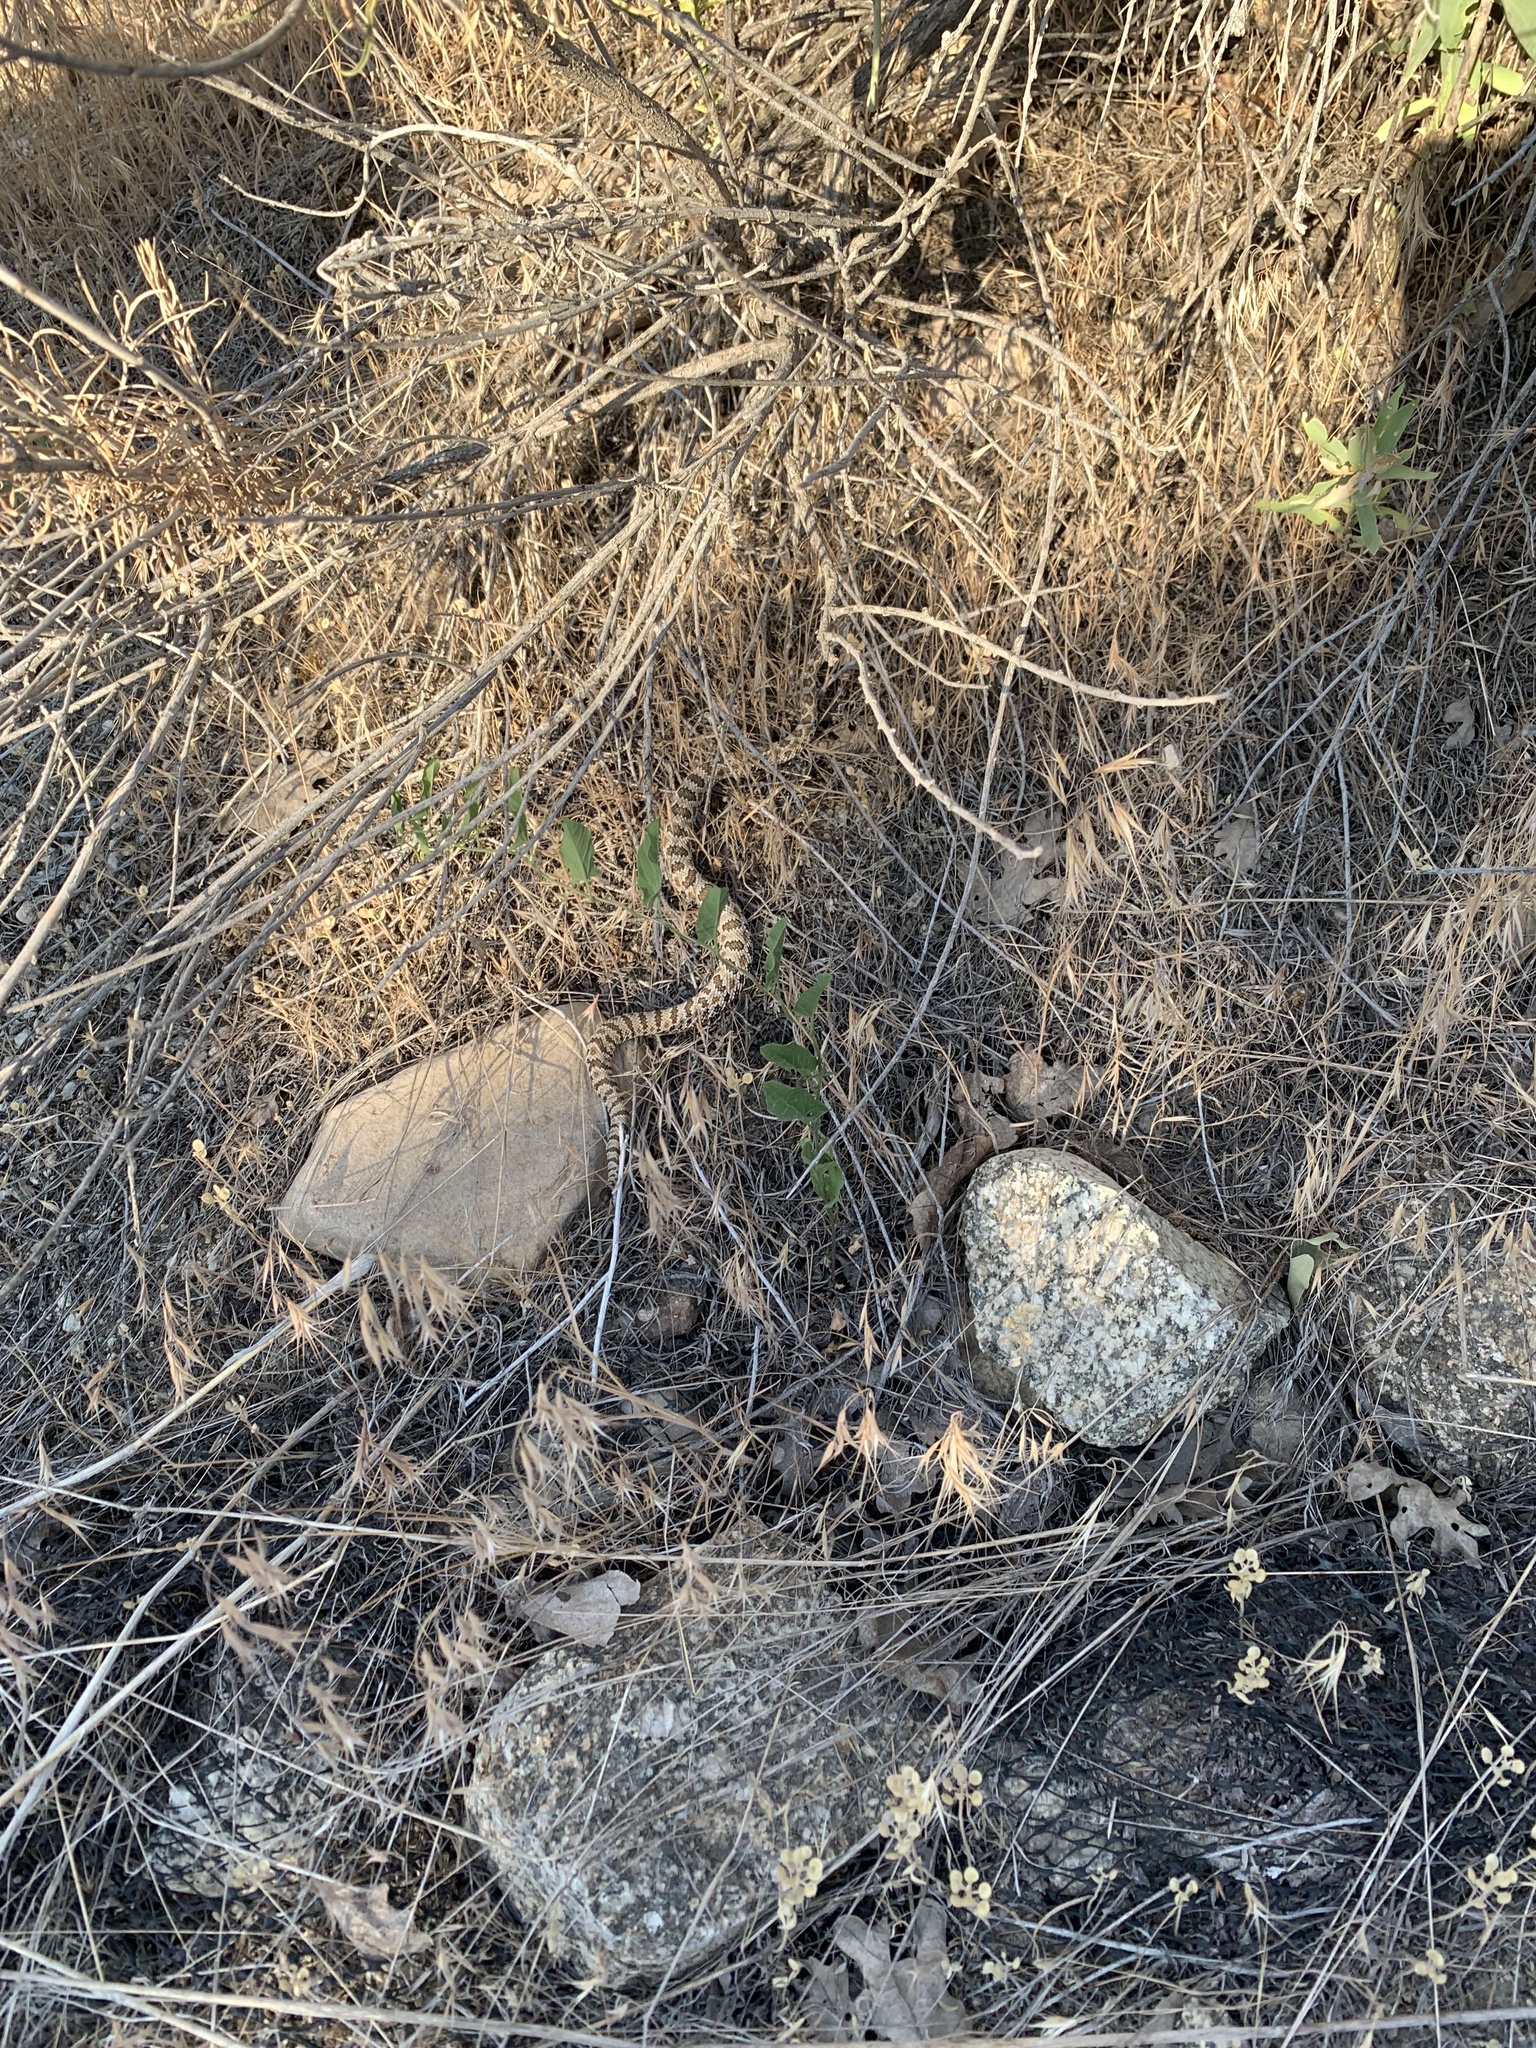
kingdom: Animalia
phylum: Chordata
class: Squamata
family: Viperidae
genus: Crotalus
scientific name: Crotalus oreganus
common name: Abyssus
